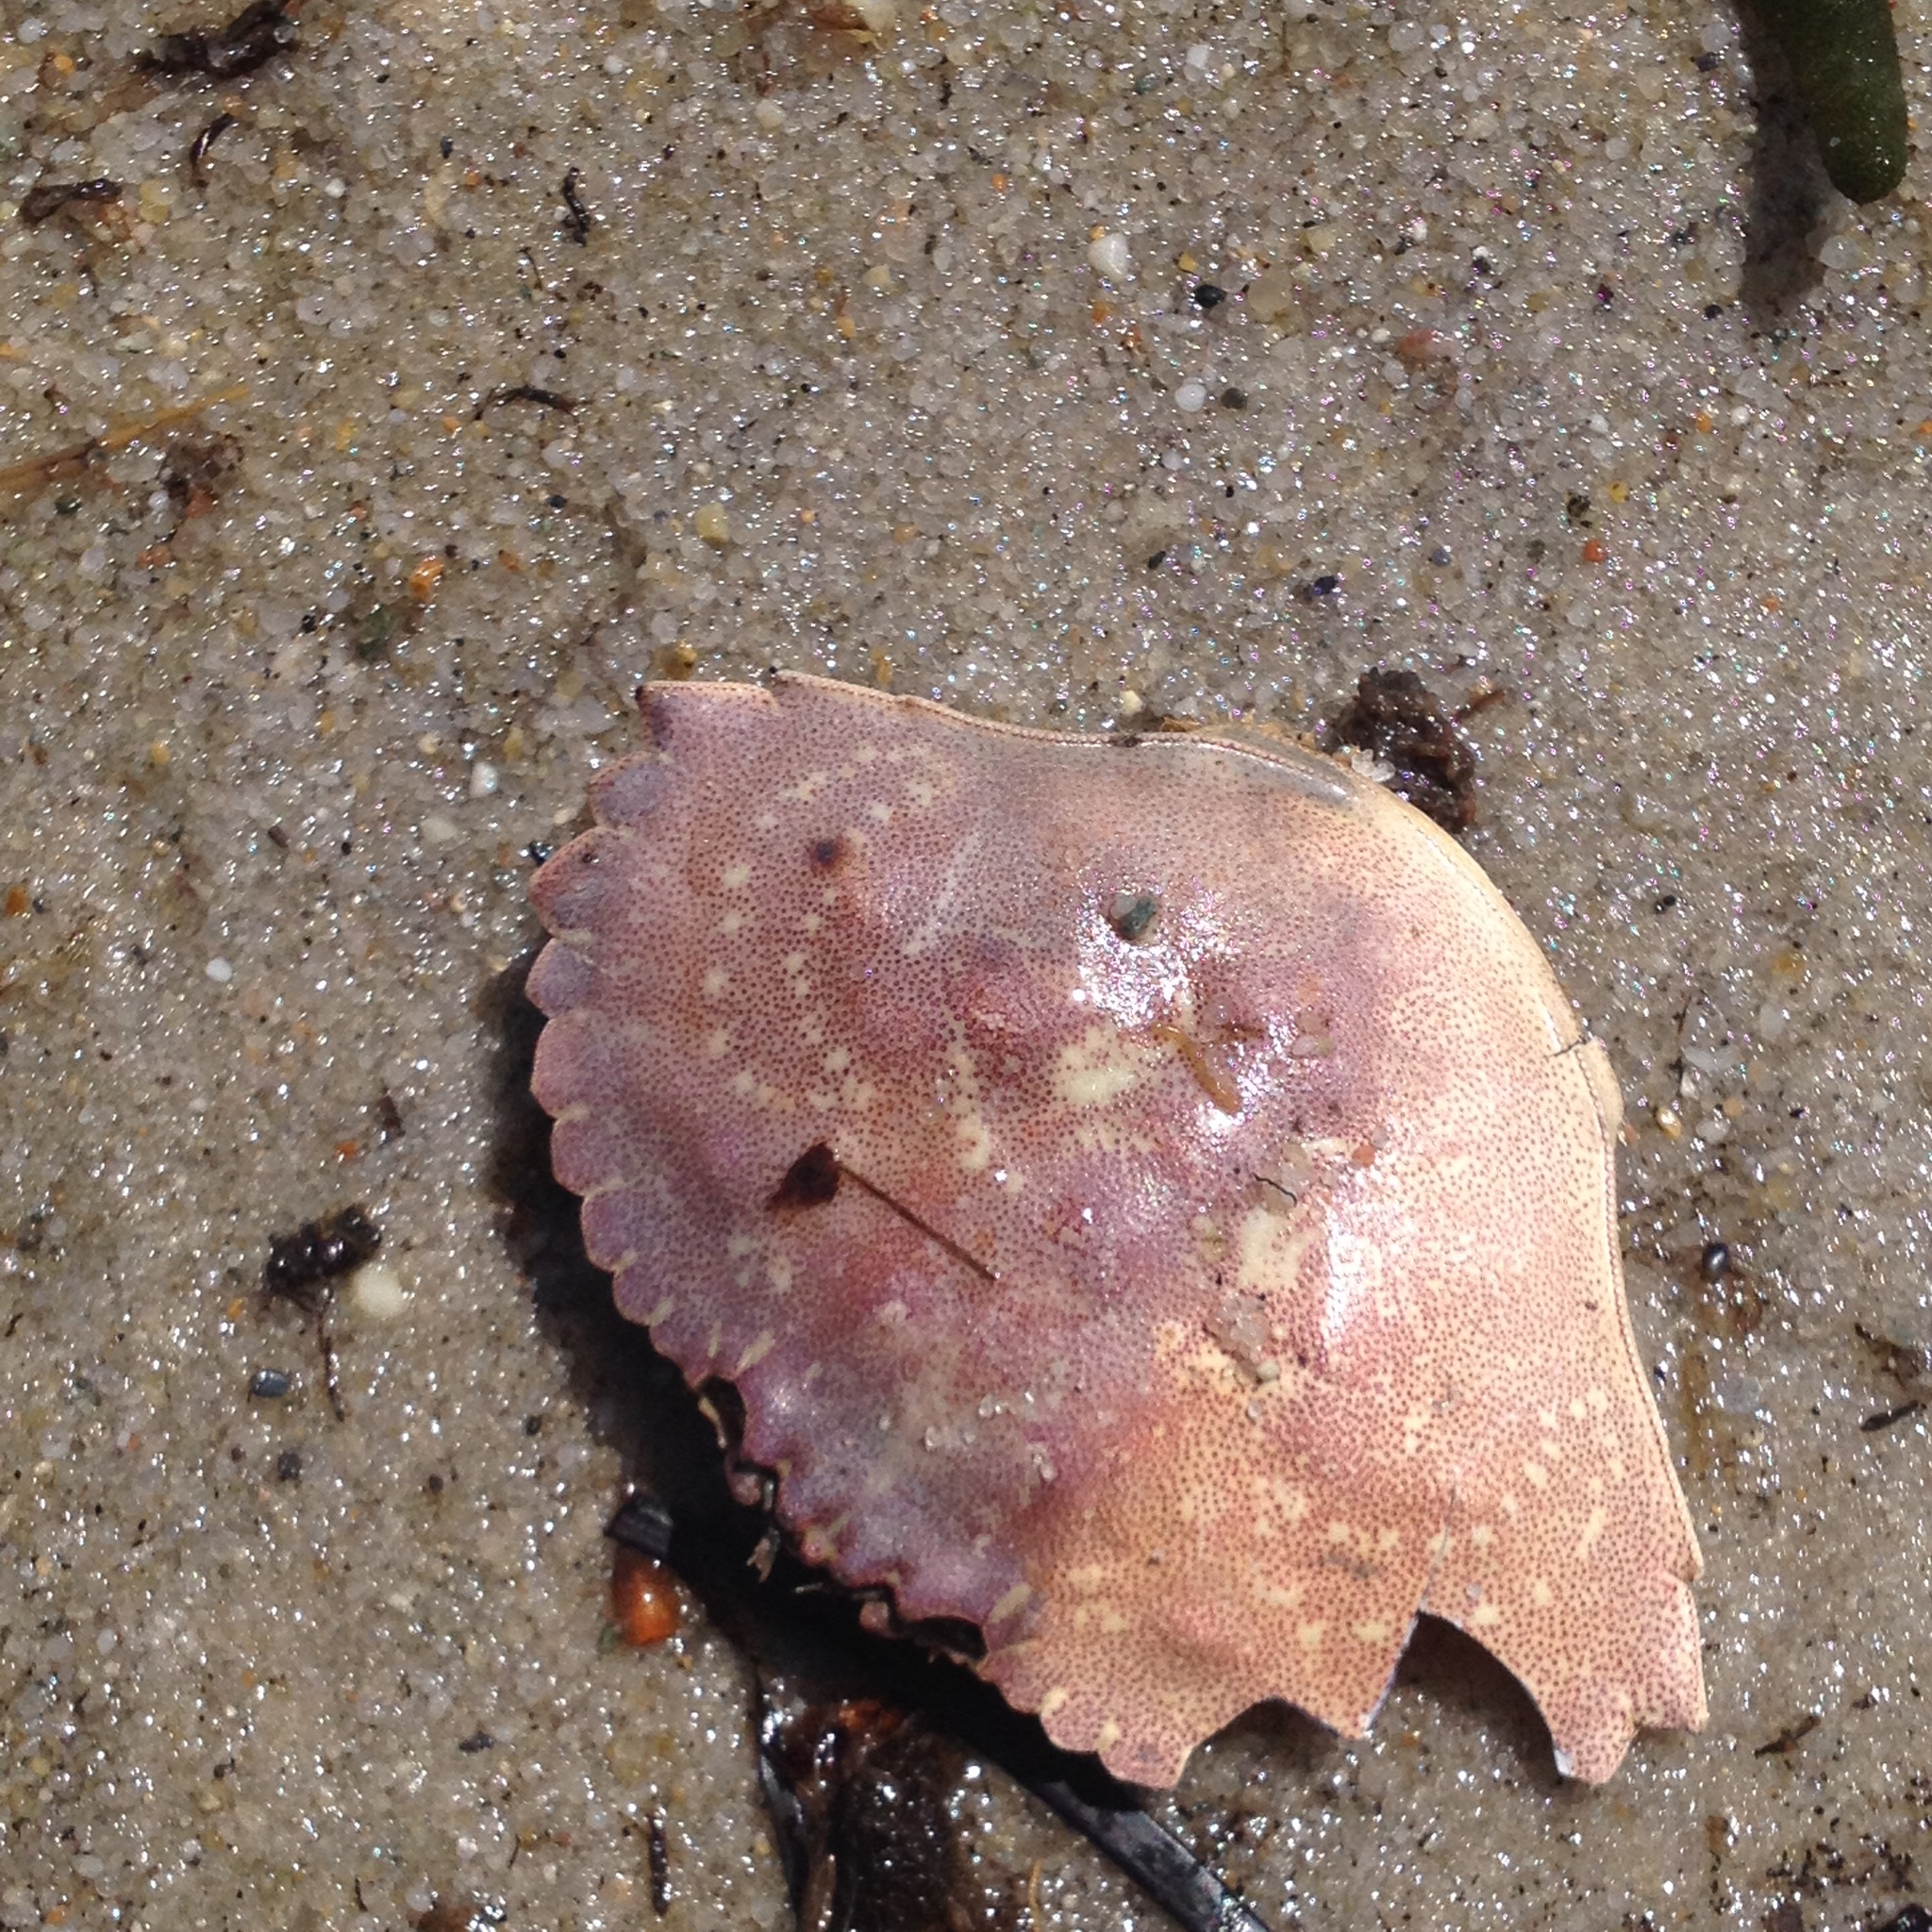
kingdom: Animalia
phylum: Arthropoda
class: Malacostraca
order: Decapoda
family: Cancridae
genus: Cancer
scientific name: Cancer irroratus
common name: Atlantic rock crab
